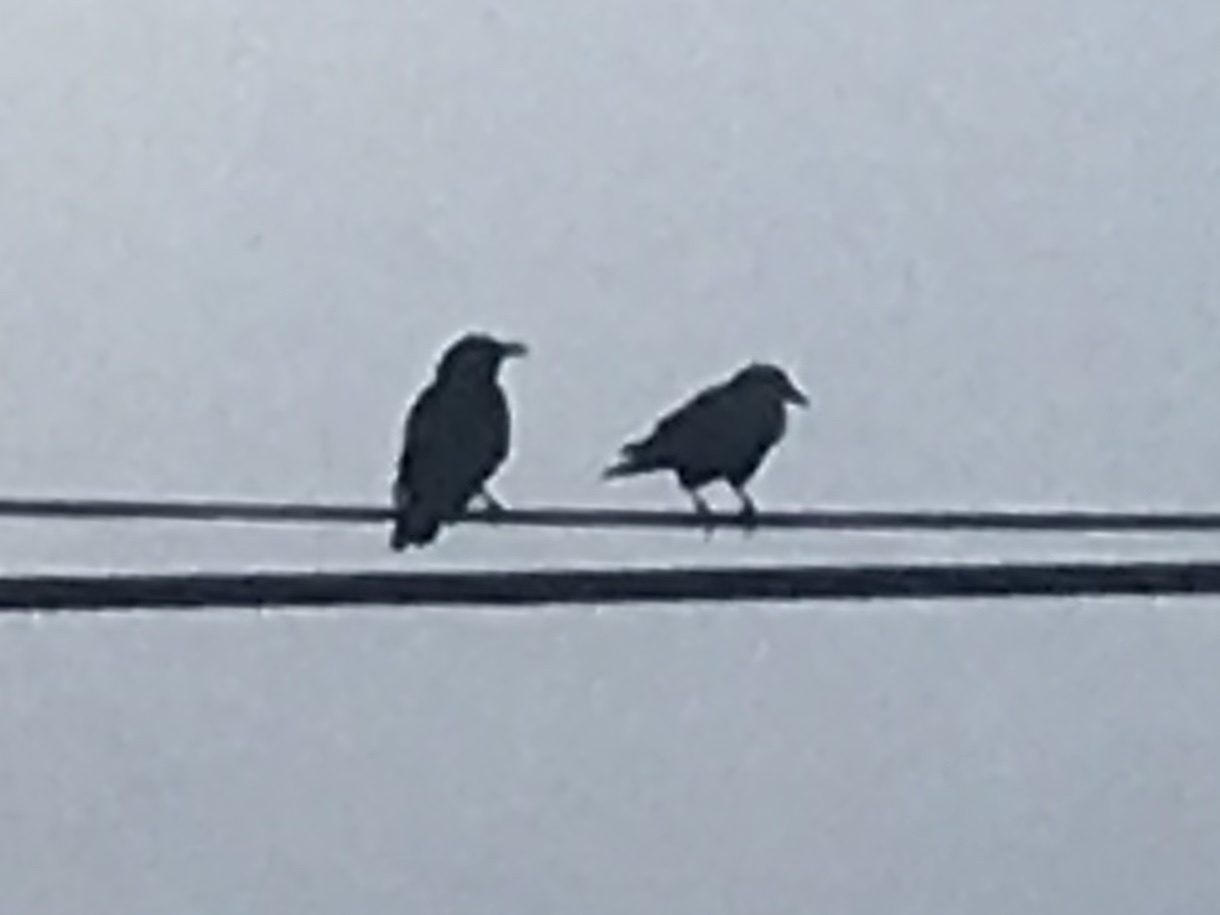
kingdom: Animalia
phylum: Chordata
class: Aves
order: Passeriformes
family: Corvidae
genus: Corvus
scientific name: Corvus brachyrhynchos
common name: American crow
